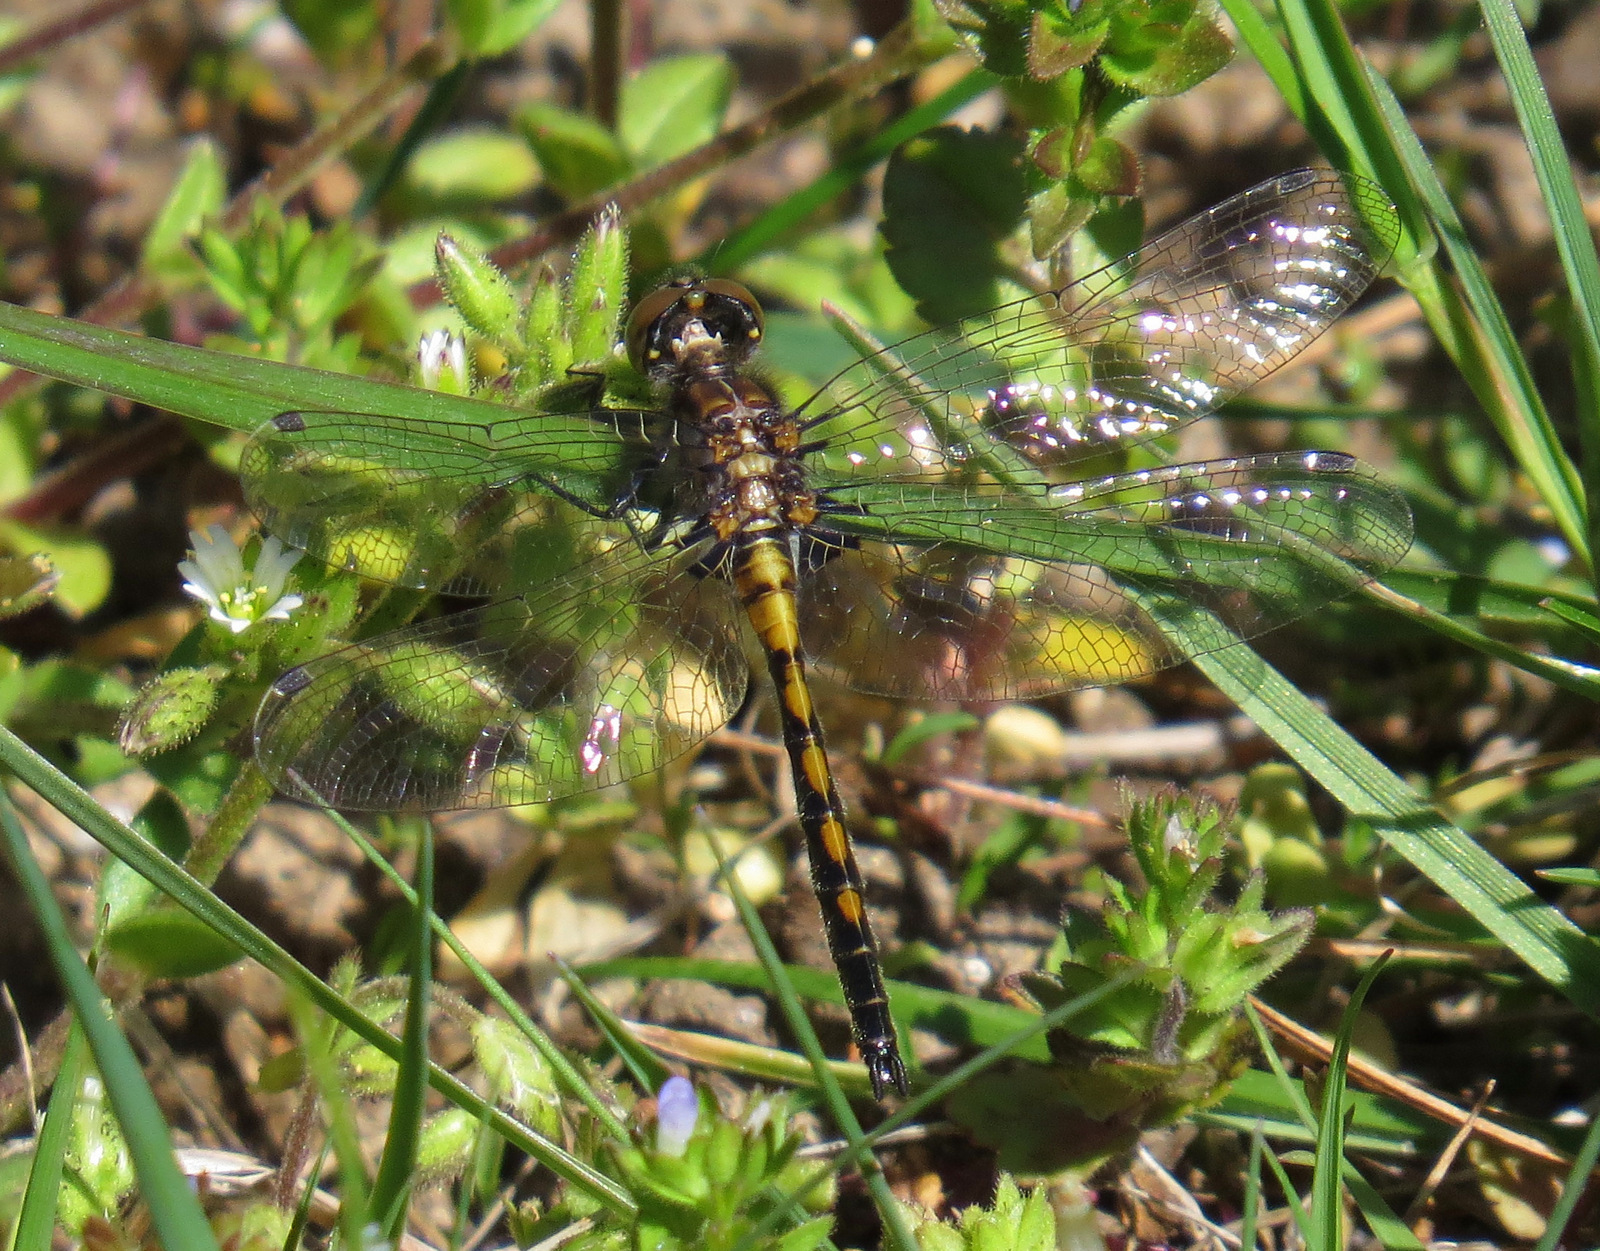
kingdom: Animalia
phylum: Arthropoda
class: Insecta
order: Odonata
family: Libellulidae
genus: Leucorrhinia
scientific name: Leucorrhinia hudsonica
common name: Hudsonian whiteface
